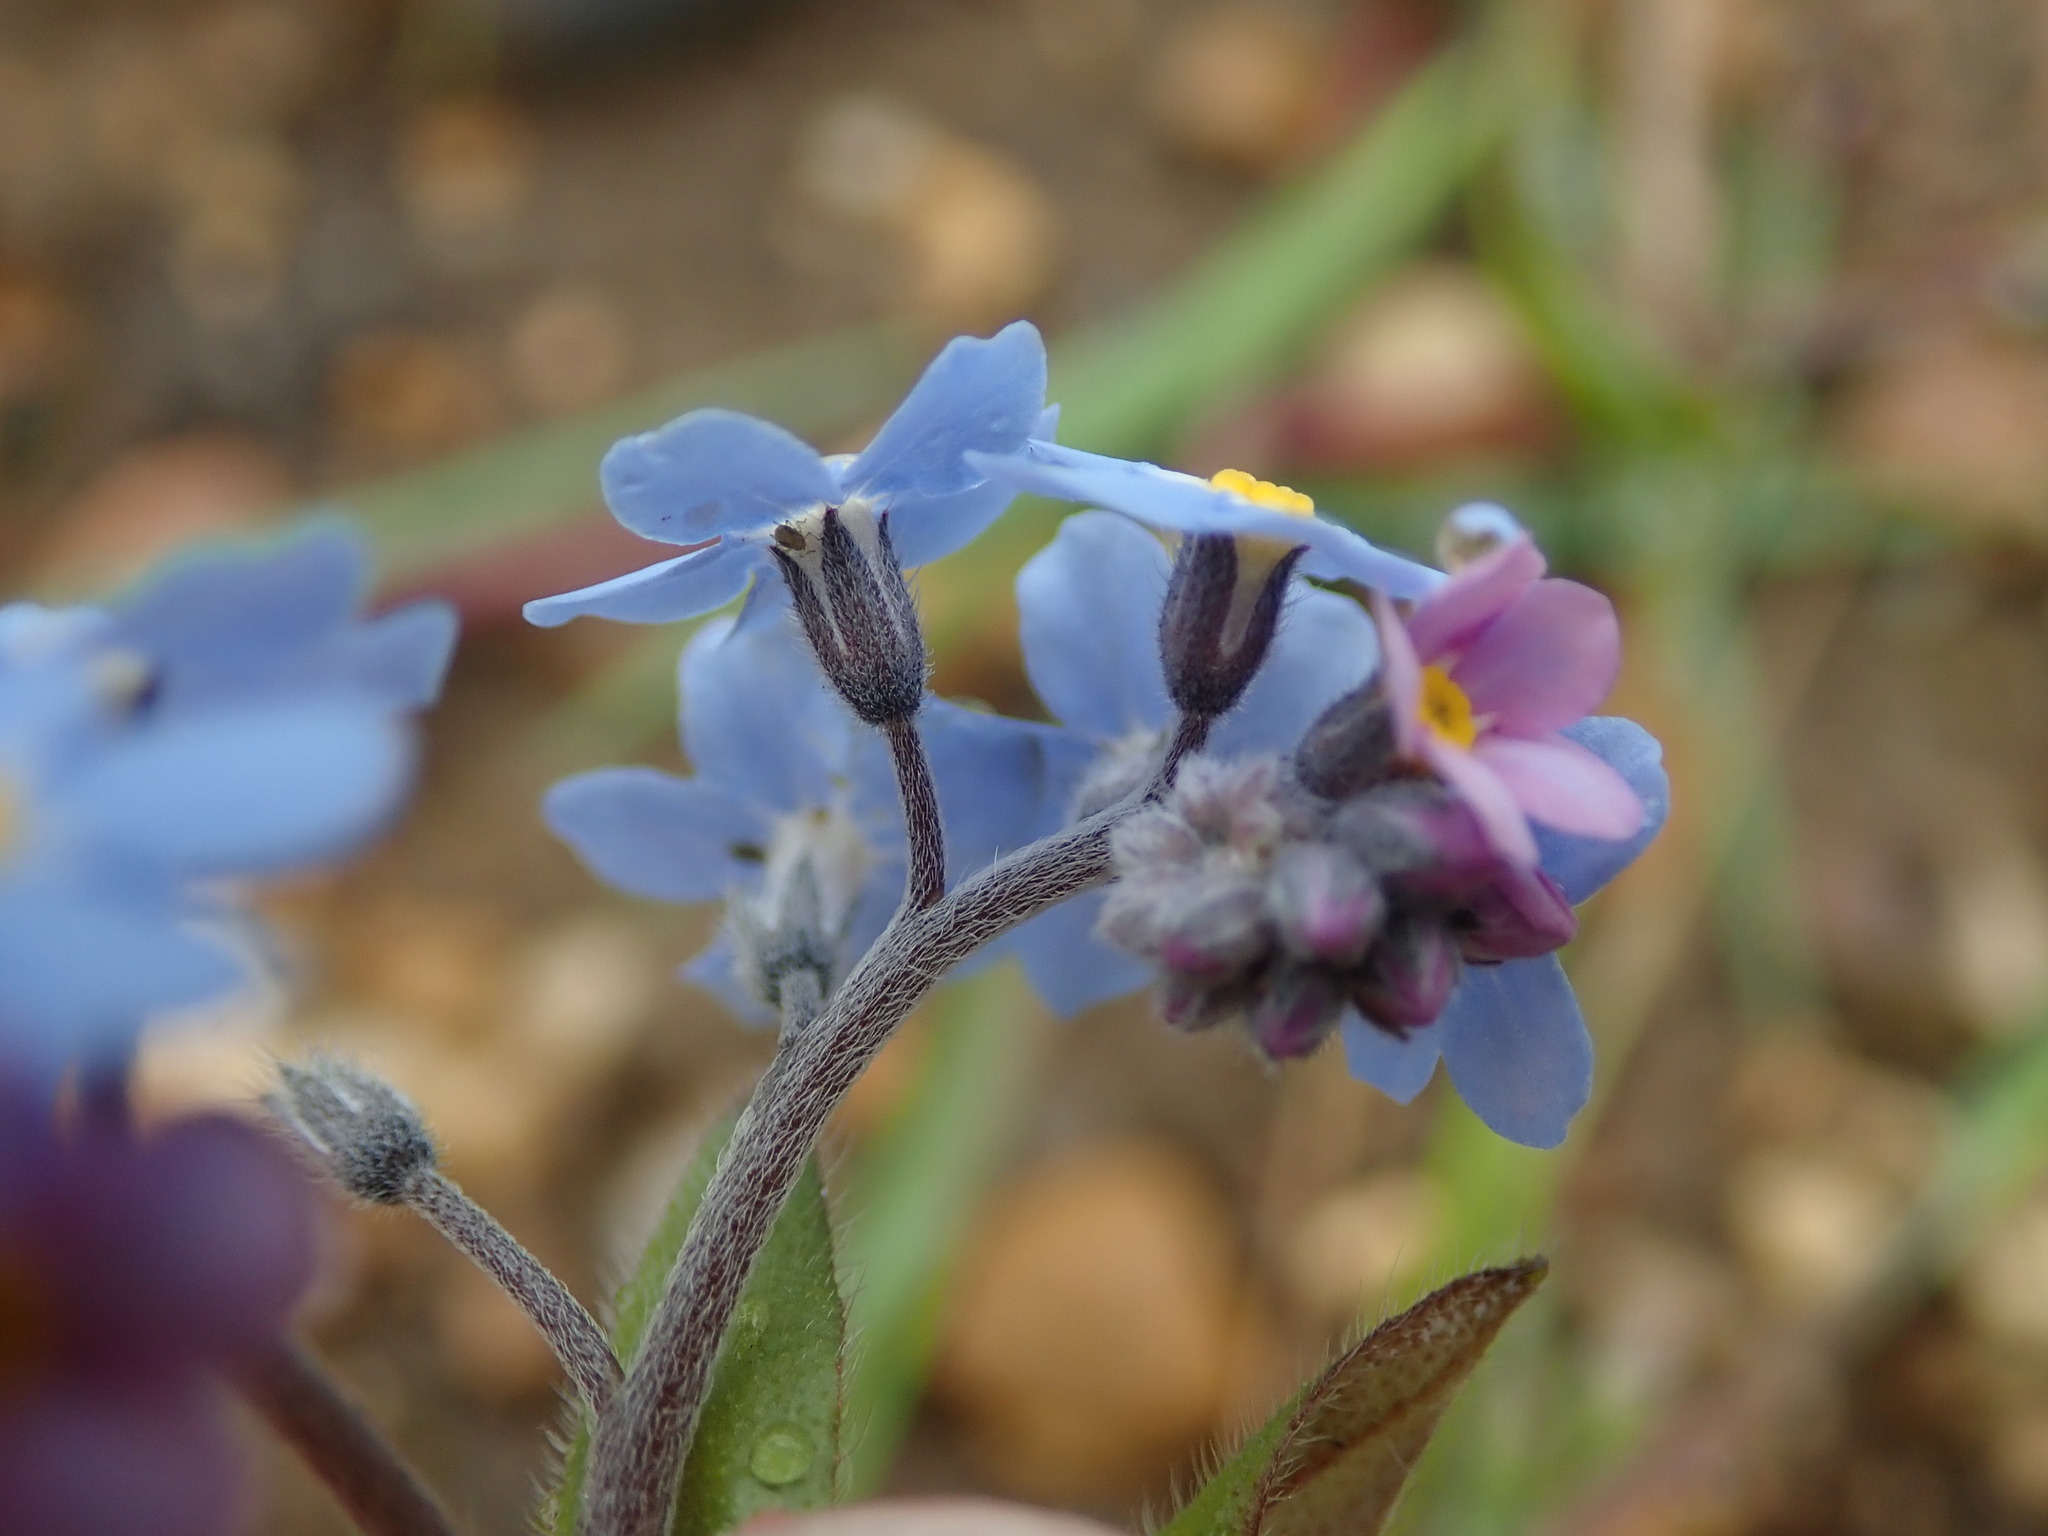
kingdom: Plantae
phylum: Tracheophyta
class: Magnoliopsida
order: Boraginales
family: Boraginaceae
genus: Myosotis
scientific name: Myosotis sylvatica
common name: Wood forget-me-not
